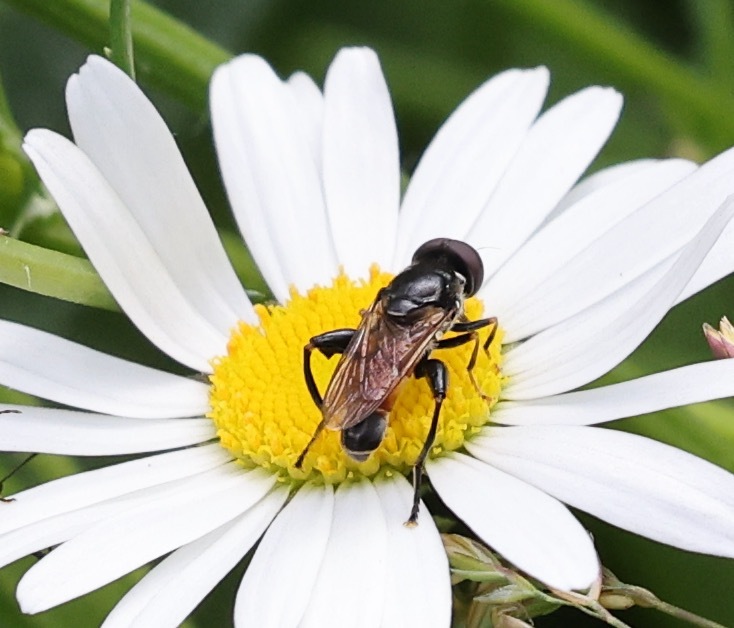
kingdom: Animalia
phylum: Arthropoda
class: Insecta
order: Diptera
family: Syrphidae
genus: Tropidia
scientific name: Tropidia scita
